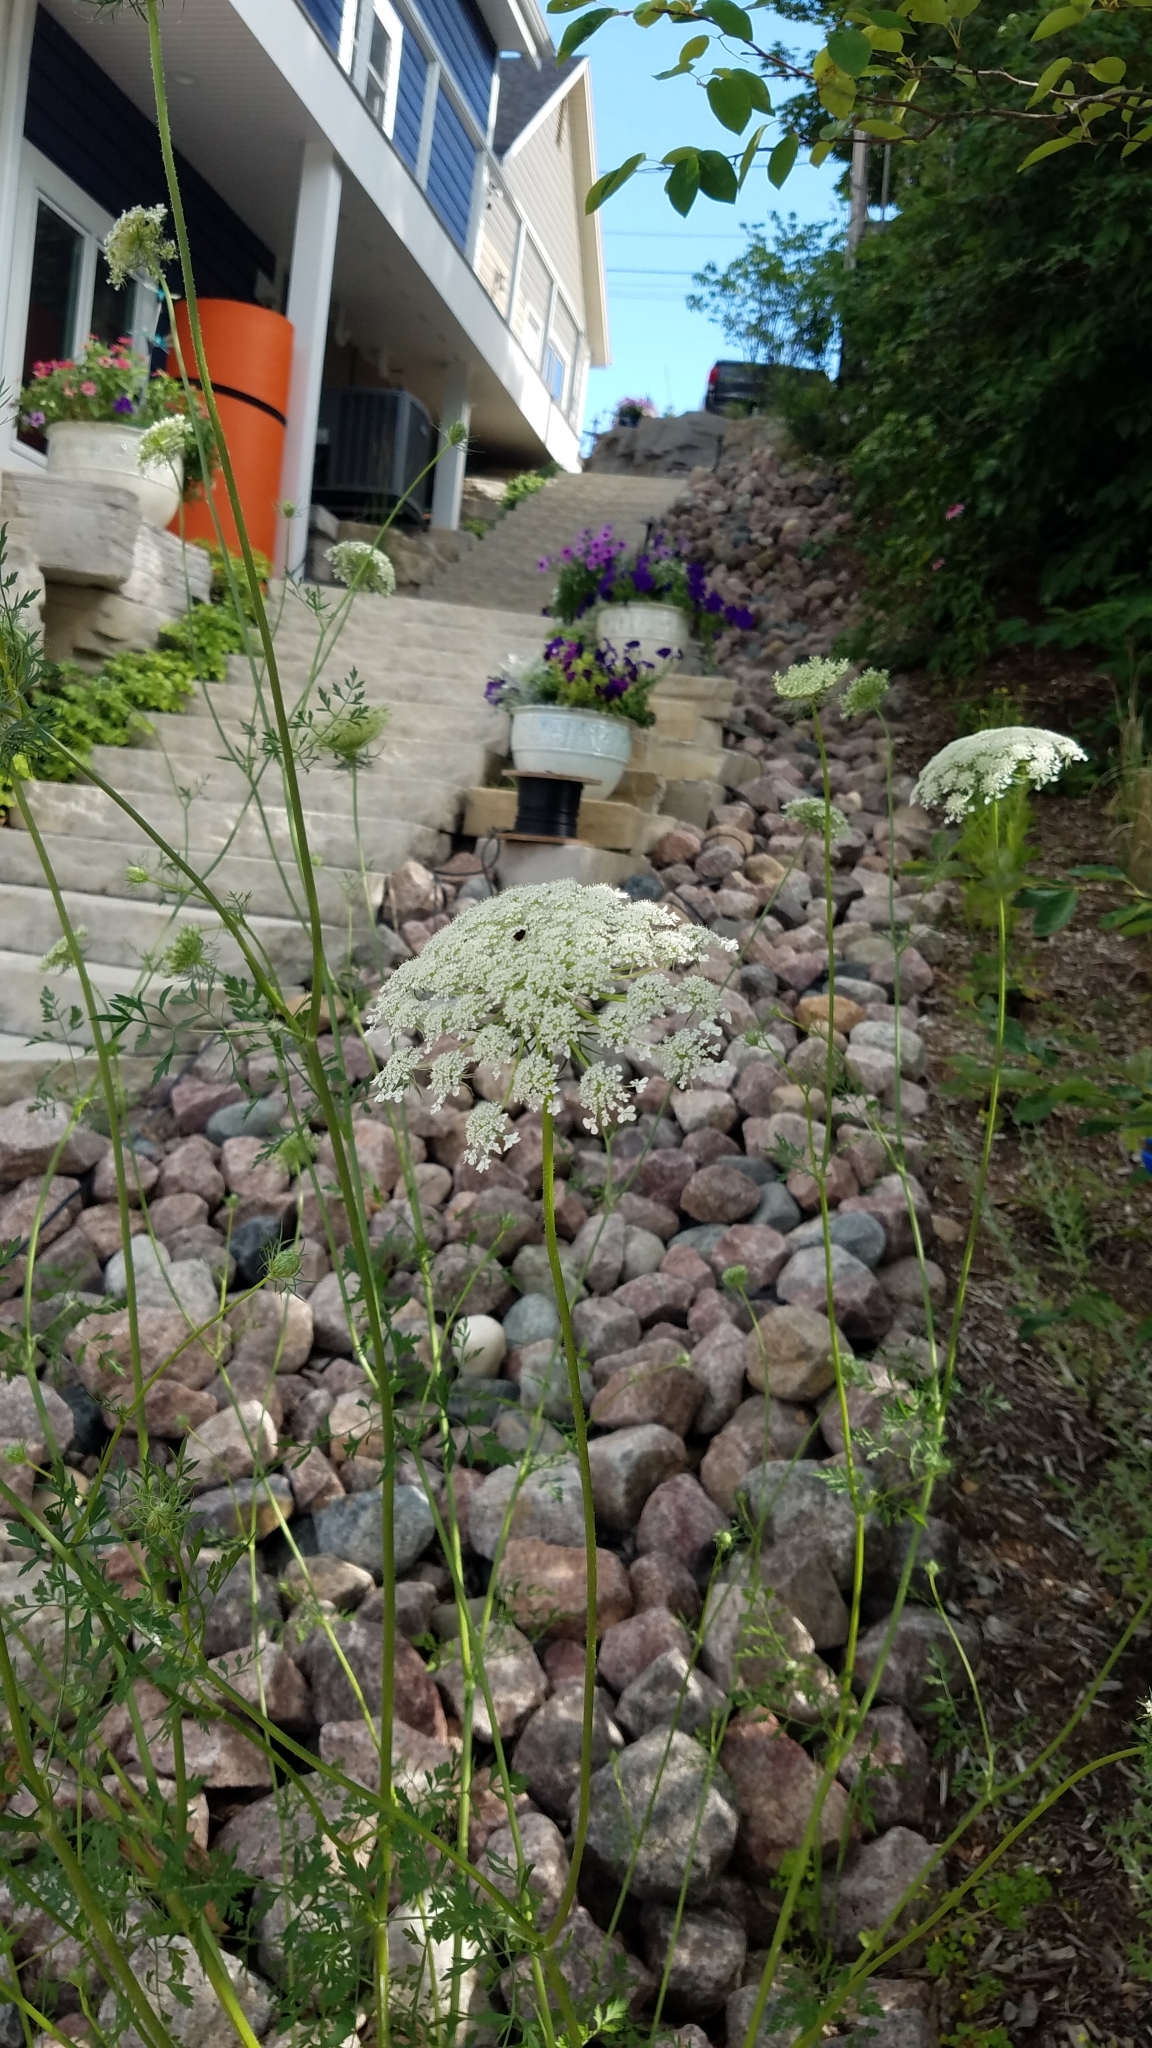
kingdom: Plantae
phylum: Tracheophyta
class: Magnoliopsida
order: Apiales
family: Apiaceae
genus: Daucus
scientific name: Daucus carota
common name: Wild carrot
